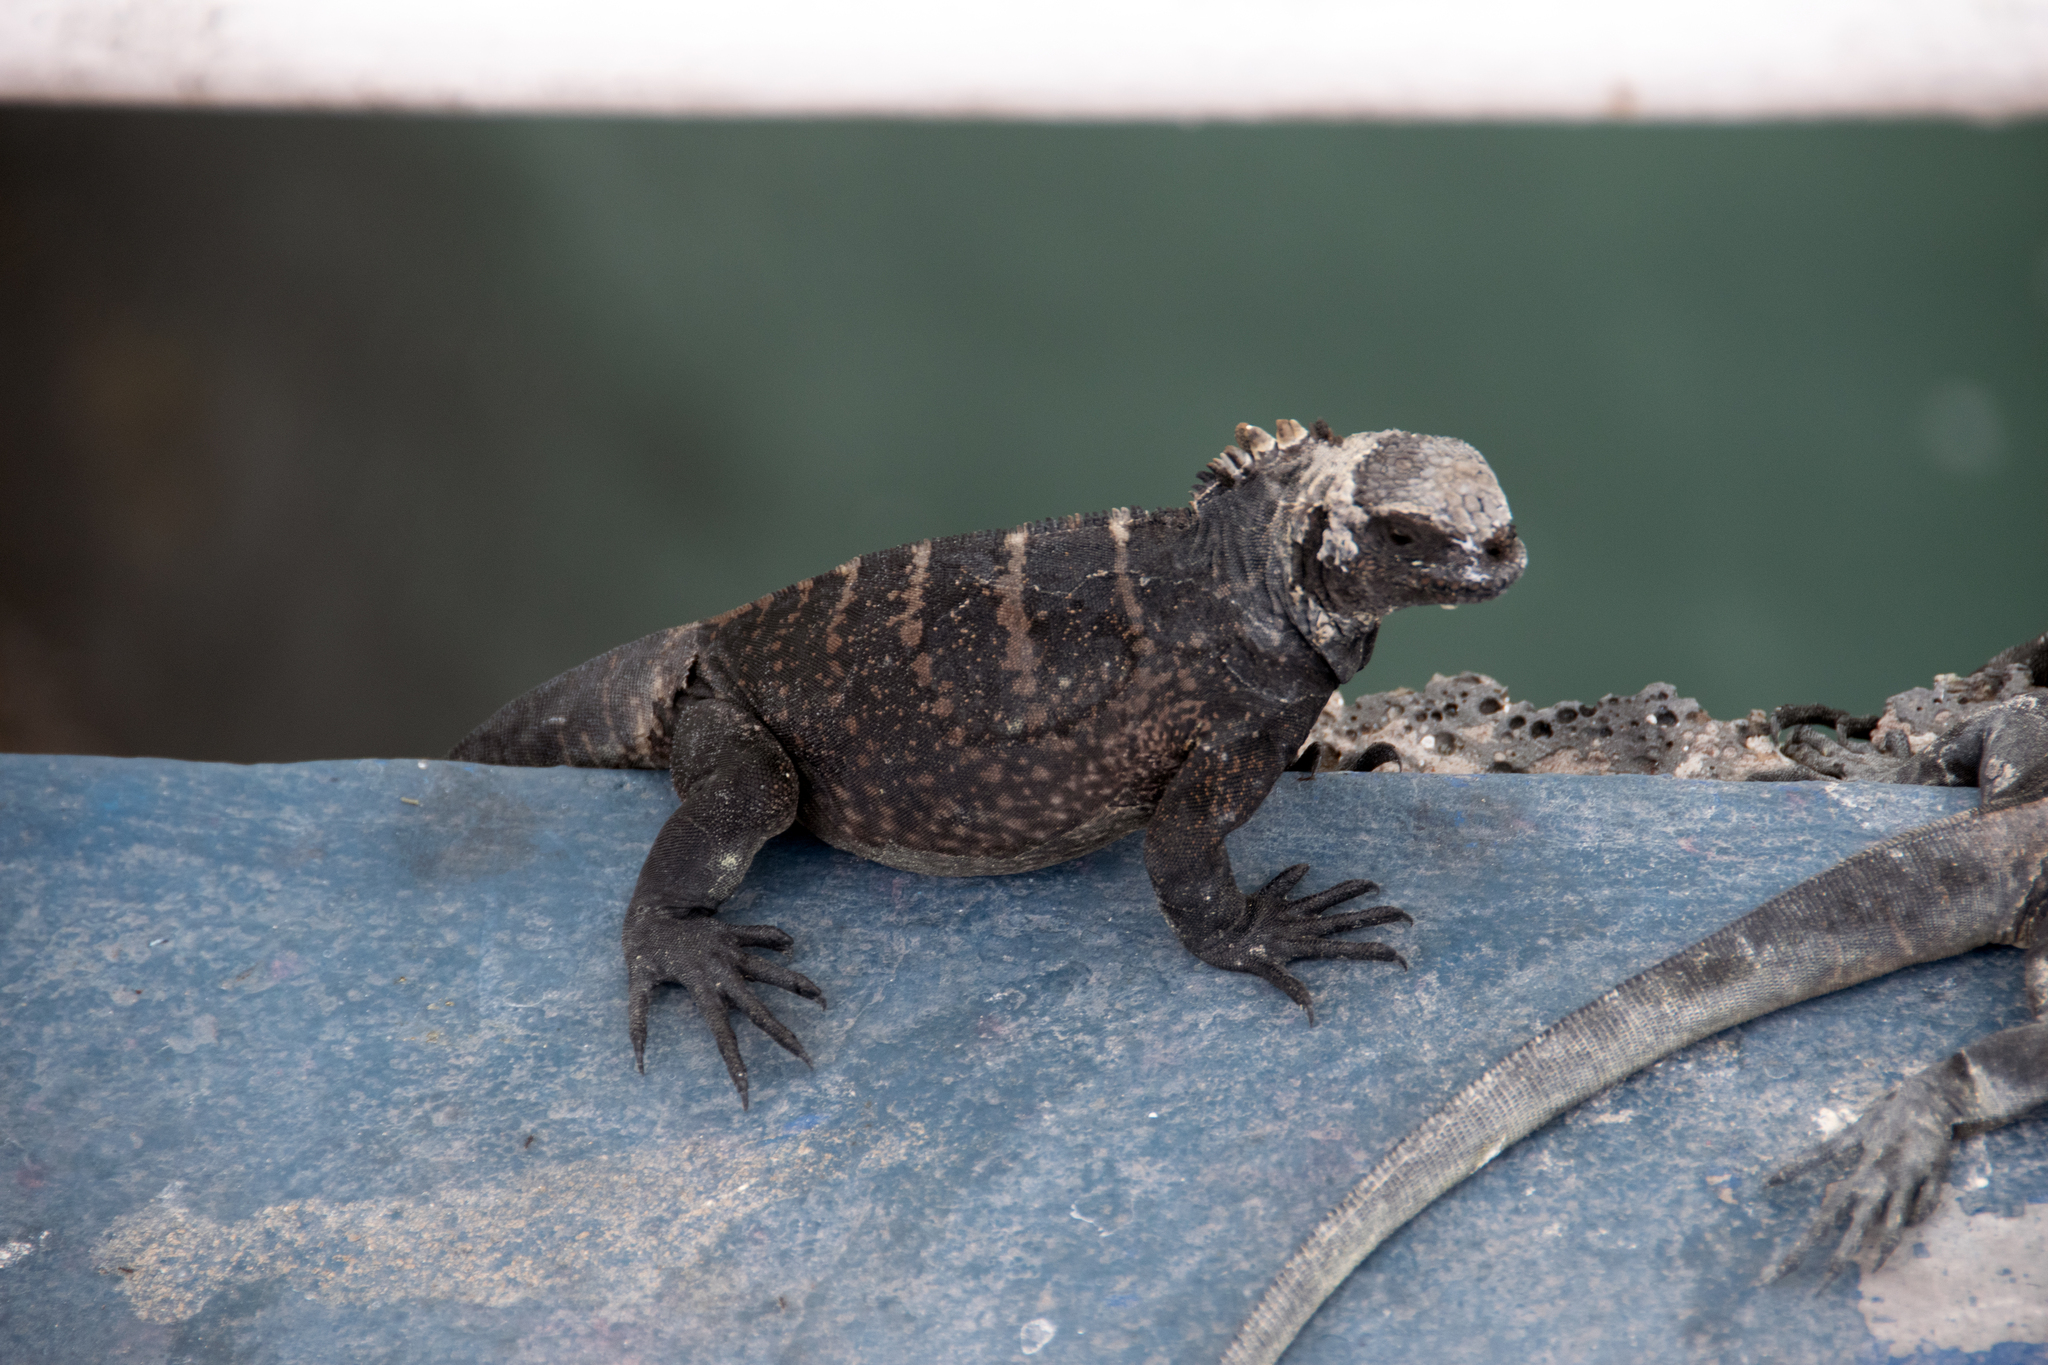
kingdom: Animalia
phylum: Chordata
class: Squamata
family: Iguanidae
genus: Amblyrhynchus
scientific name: Amblyrhynchus cristatus
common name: Marine iguana
